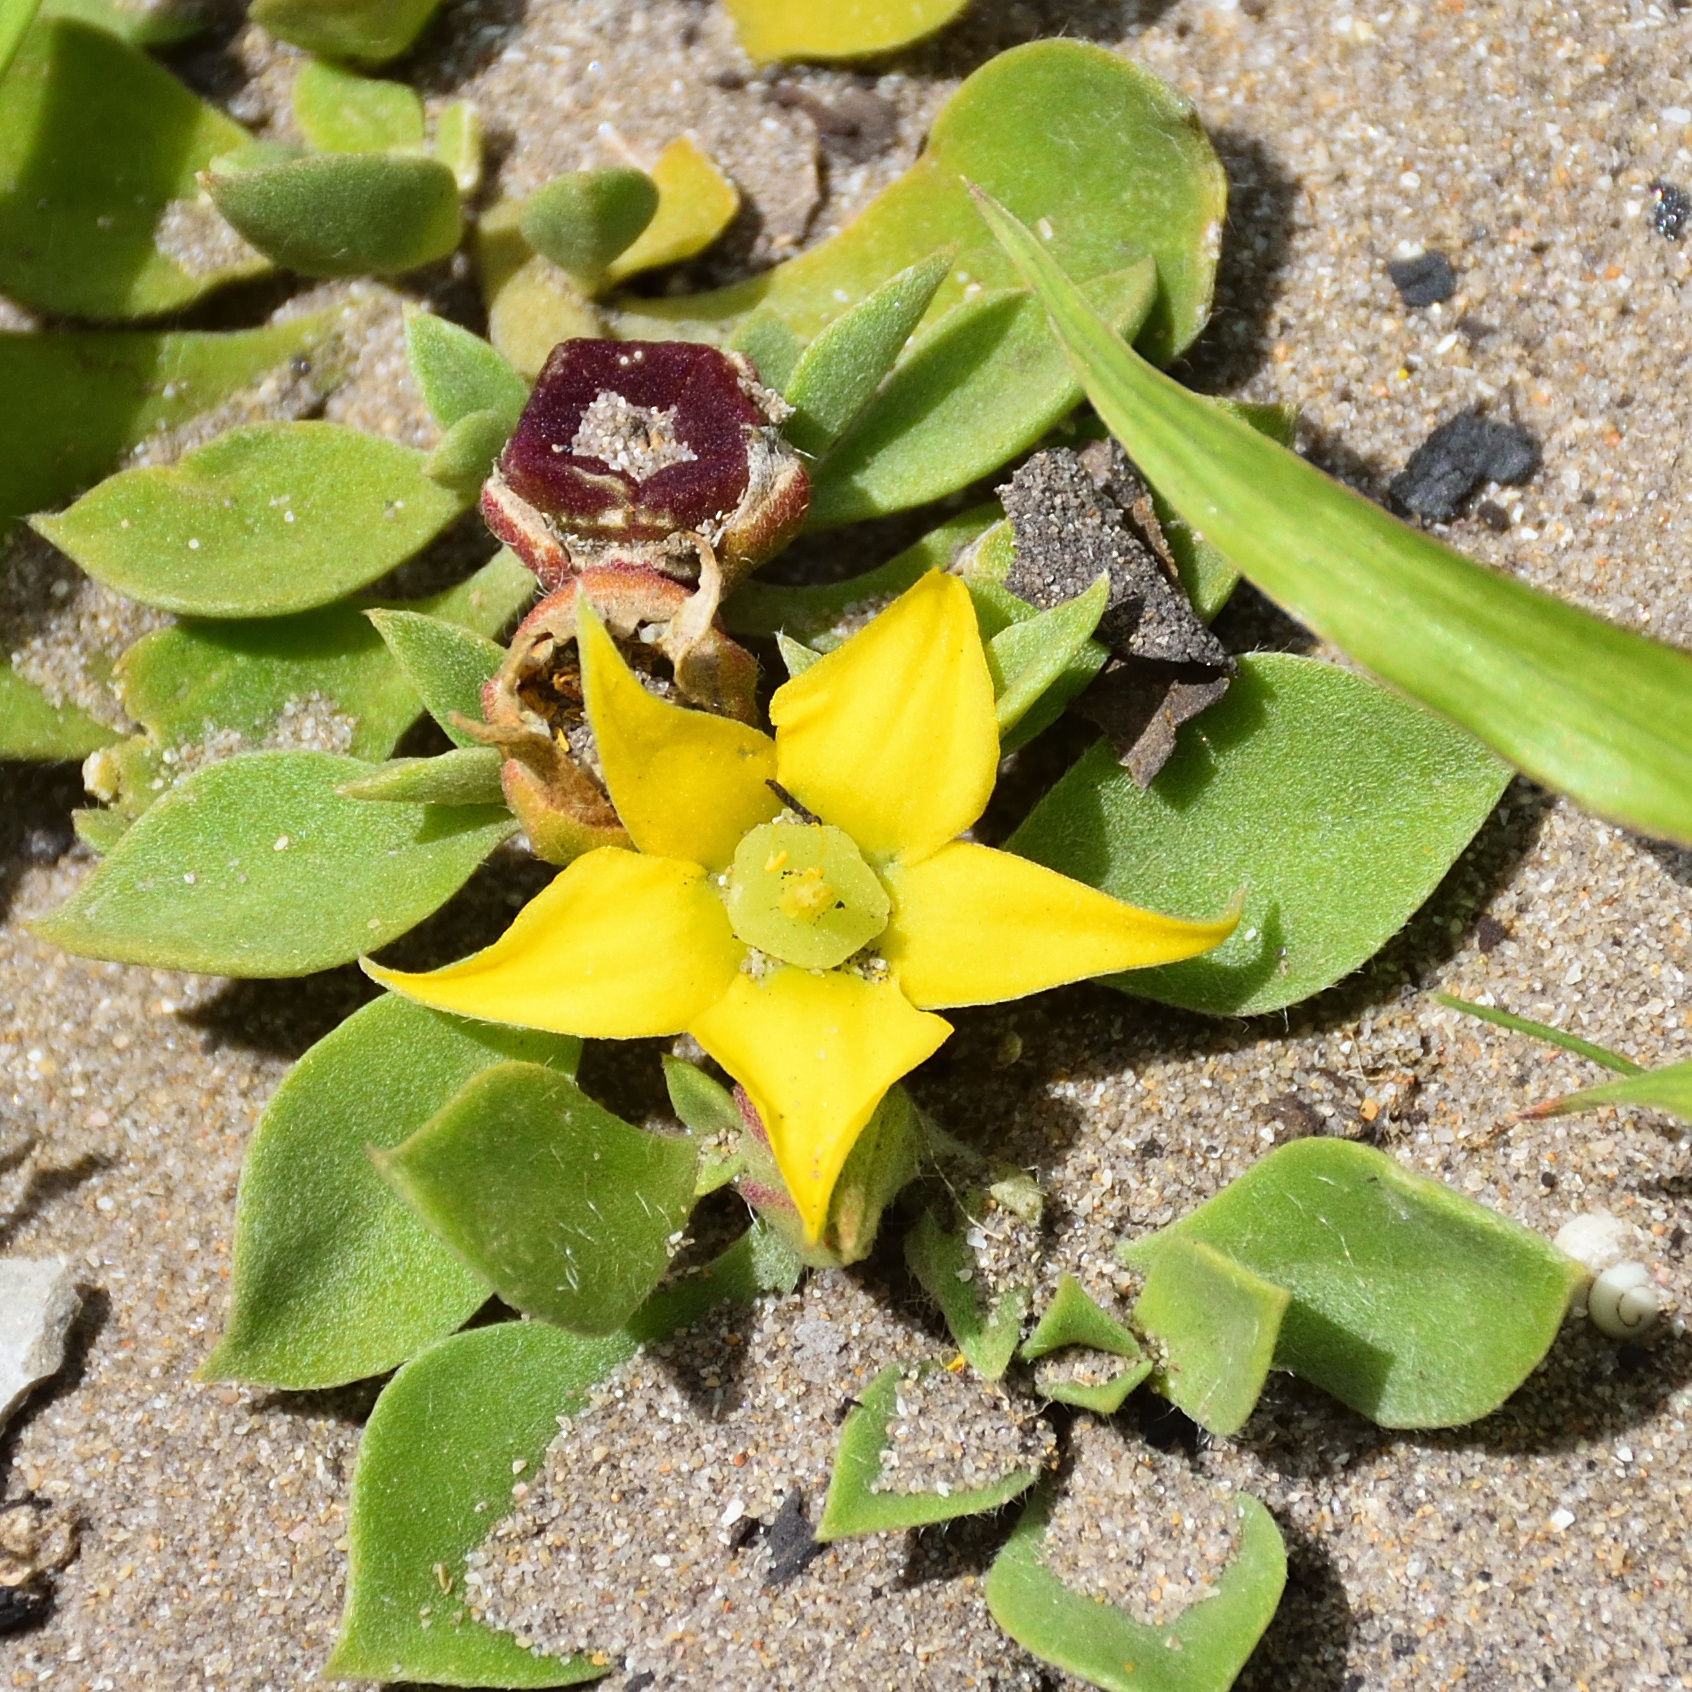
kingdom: Plantae
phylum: Tracheophyta
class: Magnoliopsida
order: Caryophyllales
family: Aizoaceae
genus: Aizoon
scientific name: Aizoon rigidum
